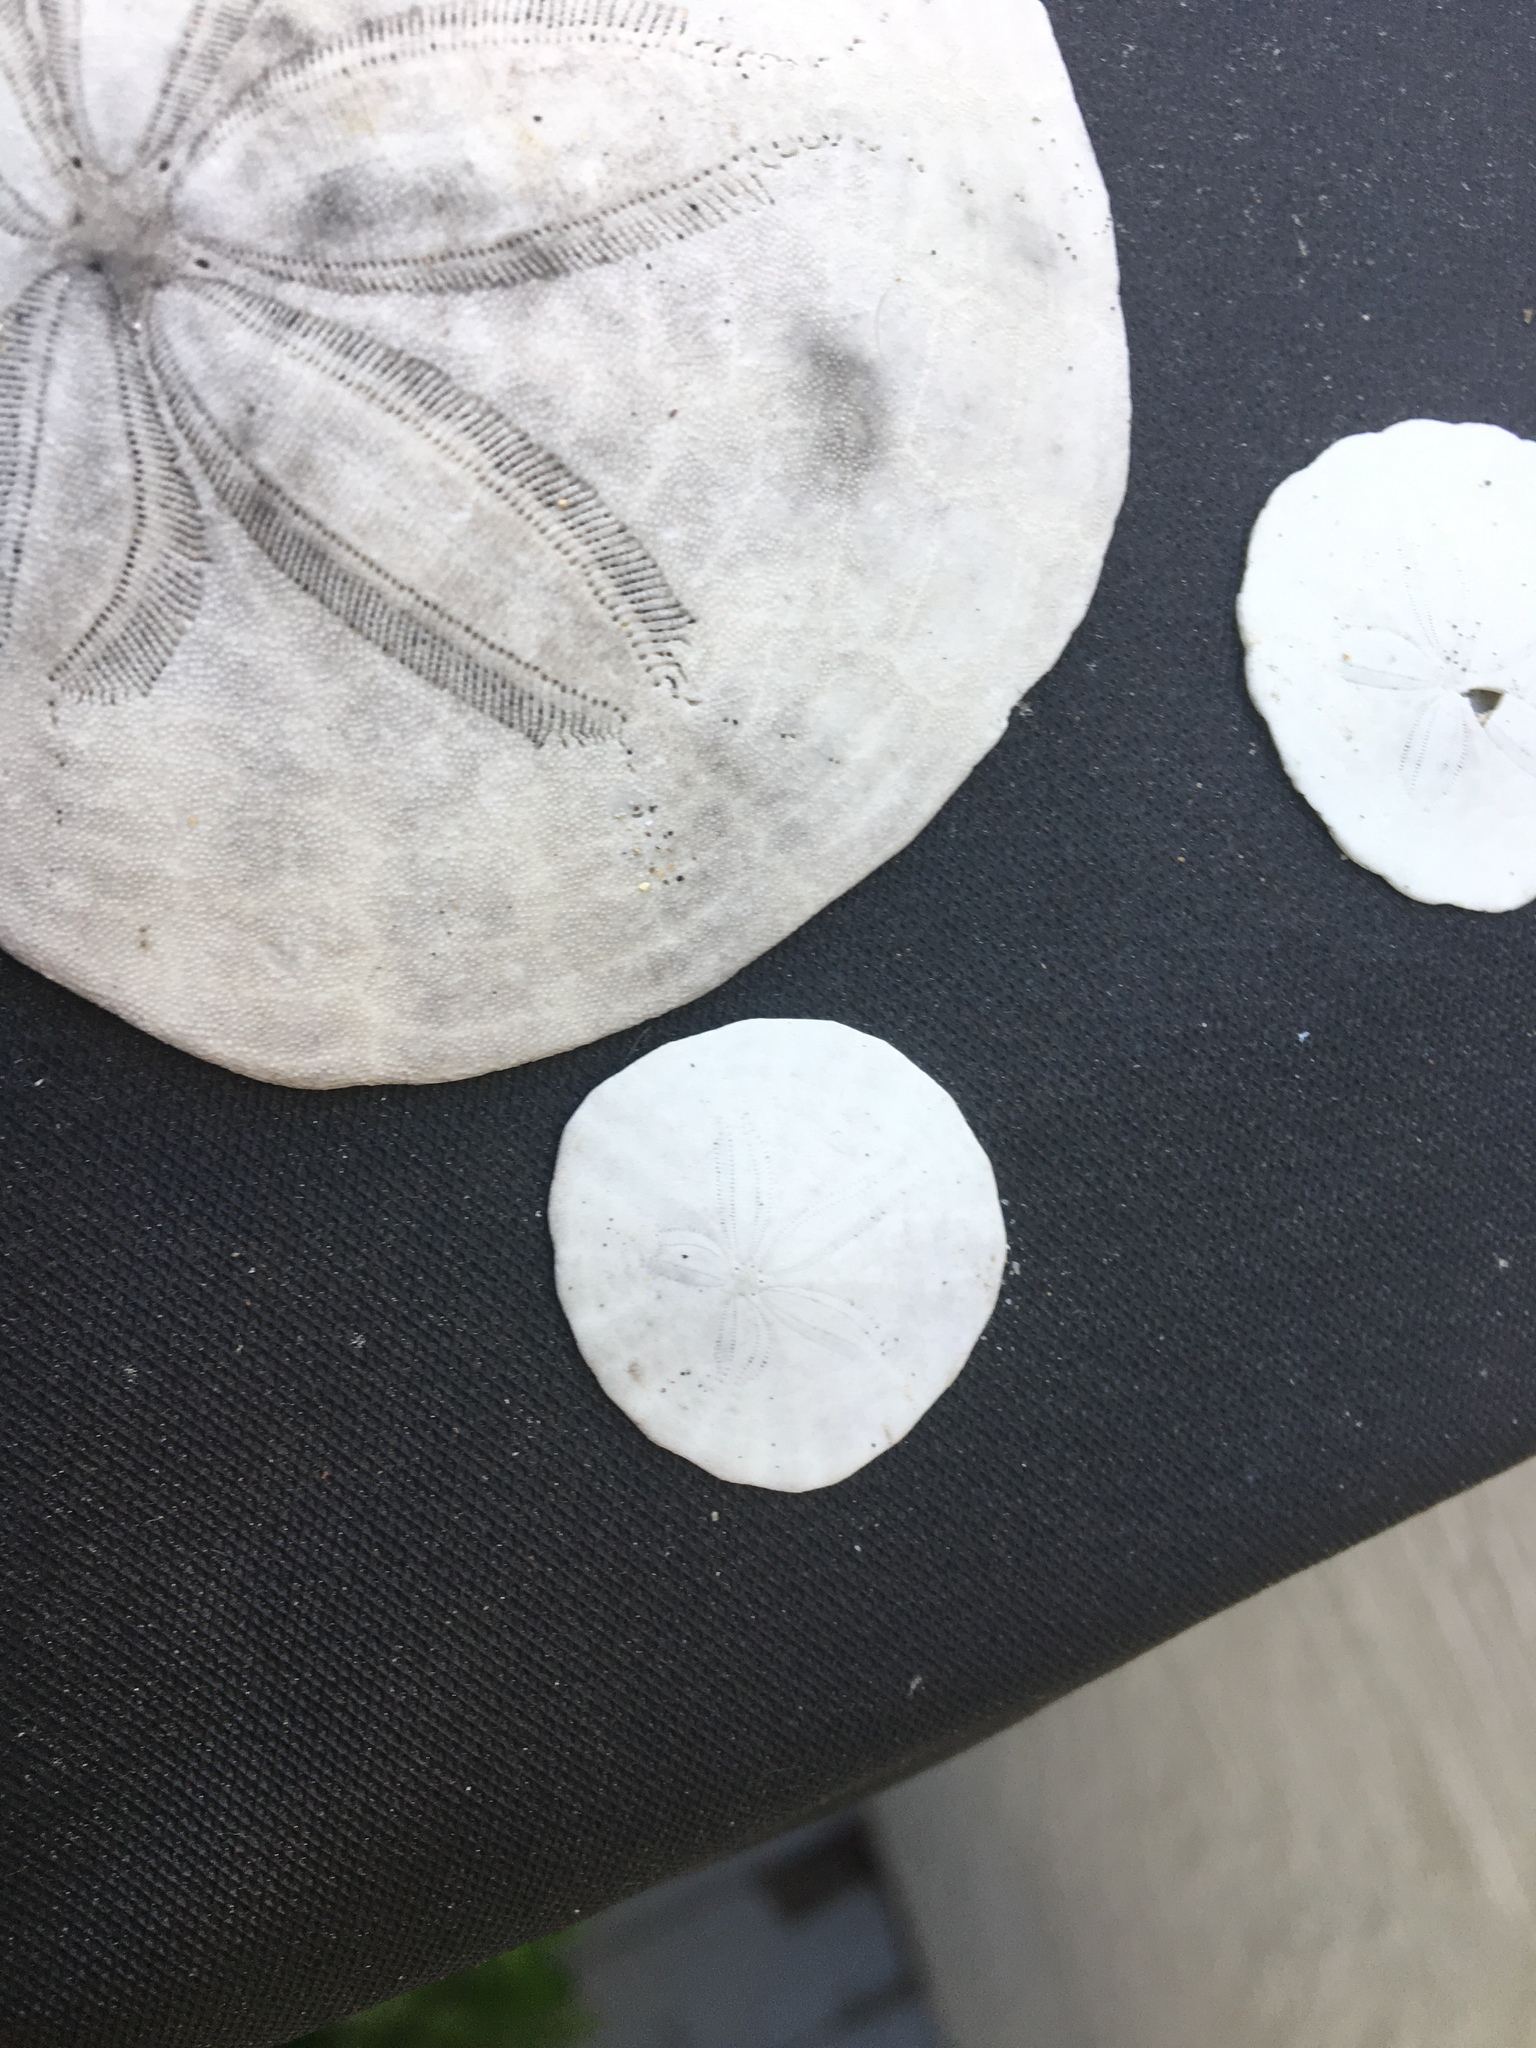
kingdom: Animalia
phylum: Echinodermata
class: Echinoidea
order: Echinolampadacea
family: Dendrasteridae
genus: Dendraster
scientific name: Dendraster excentricus
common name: Eccentric sand dollar sea urchin
